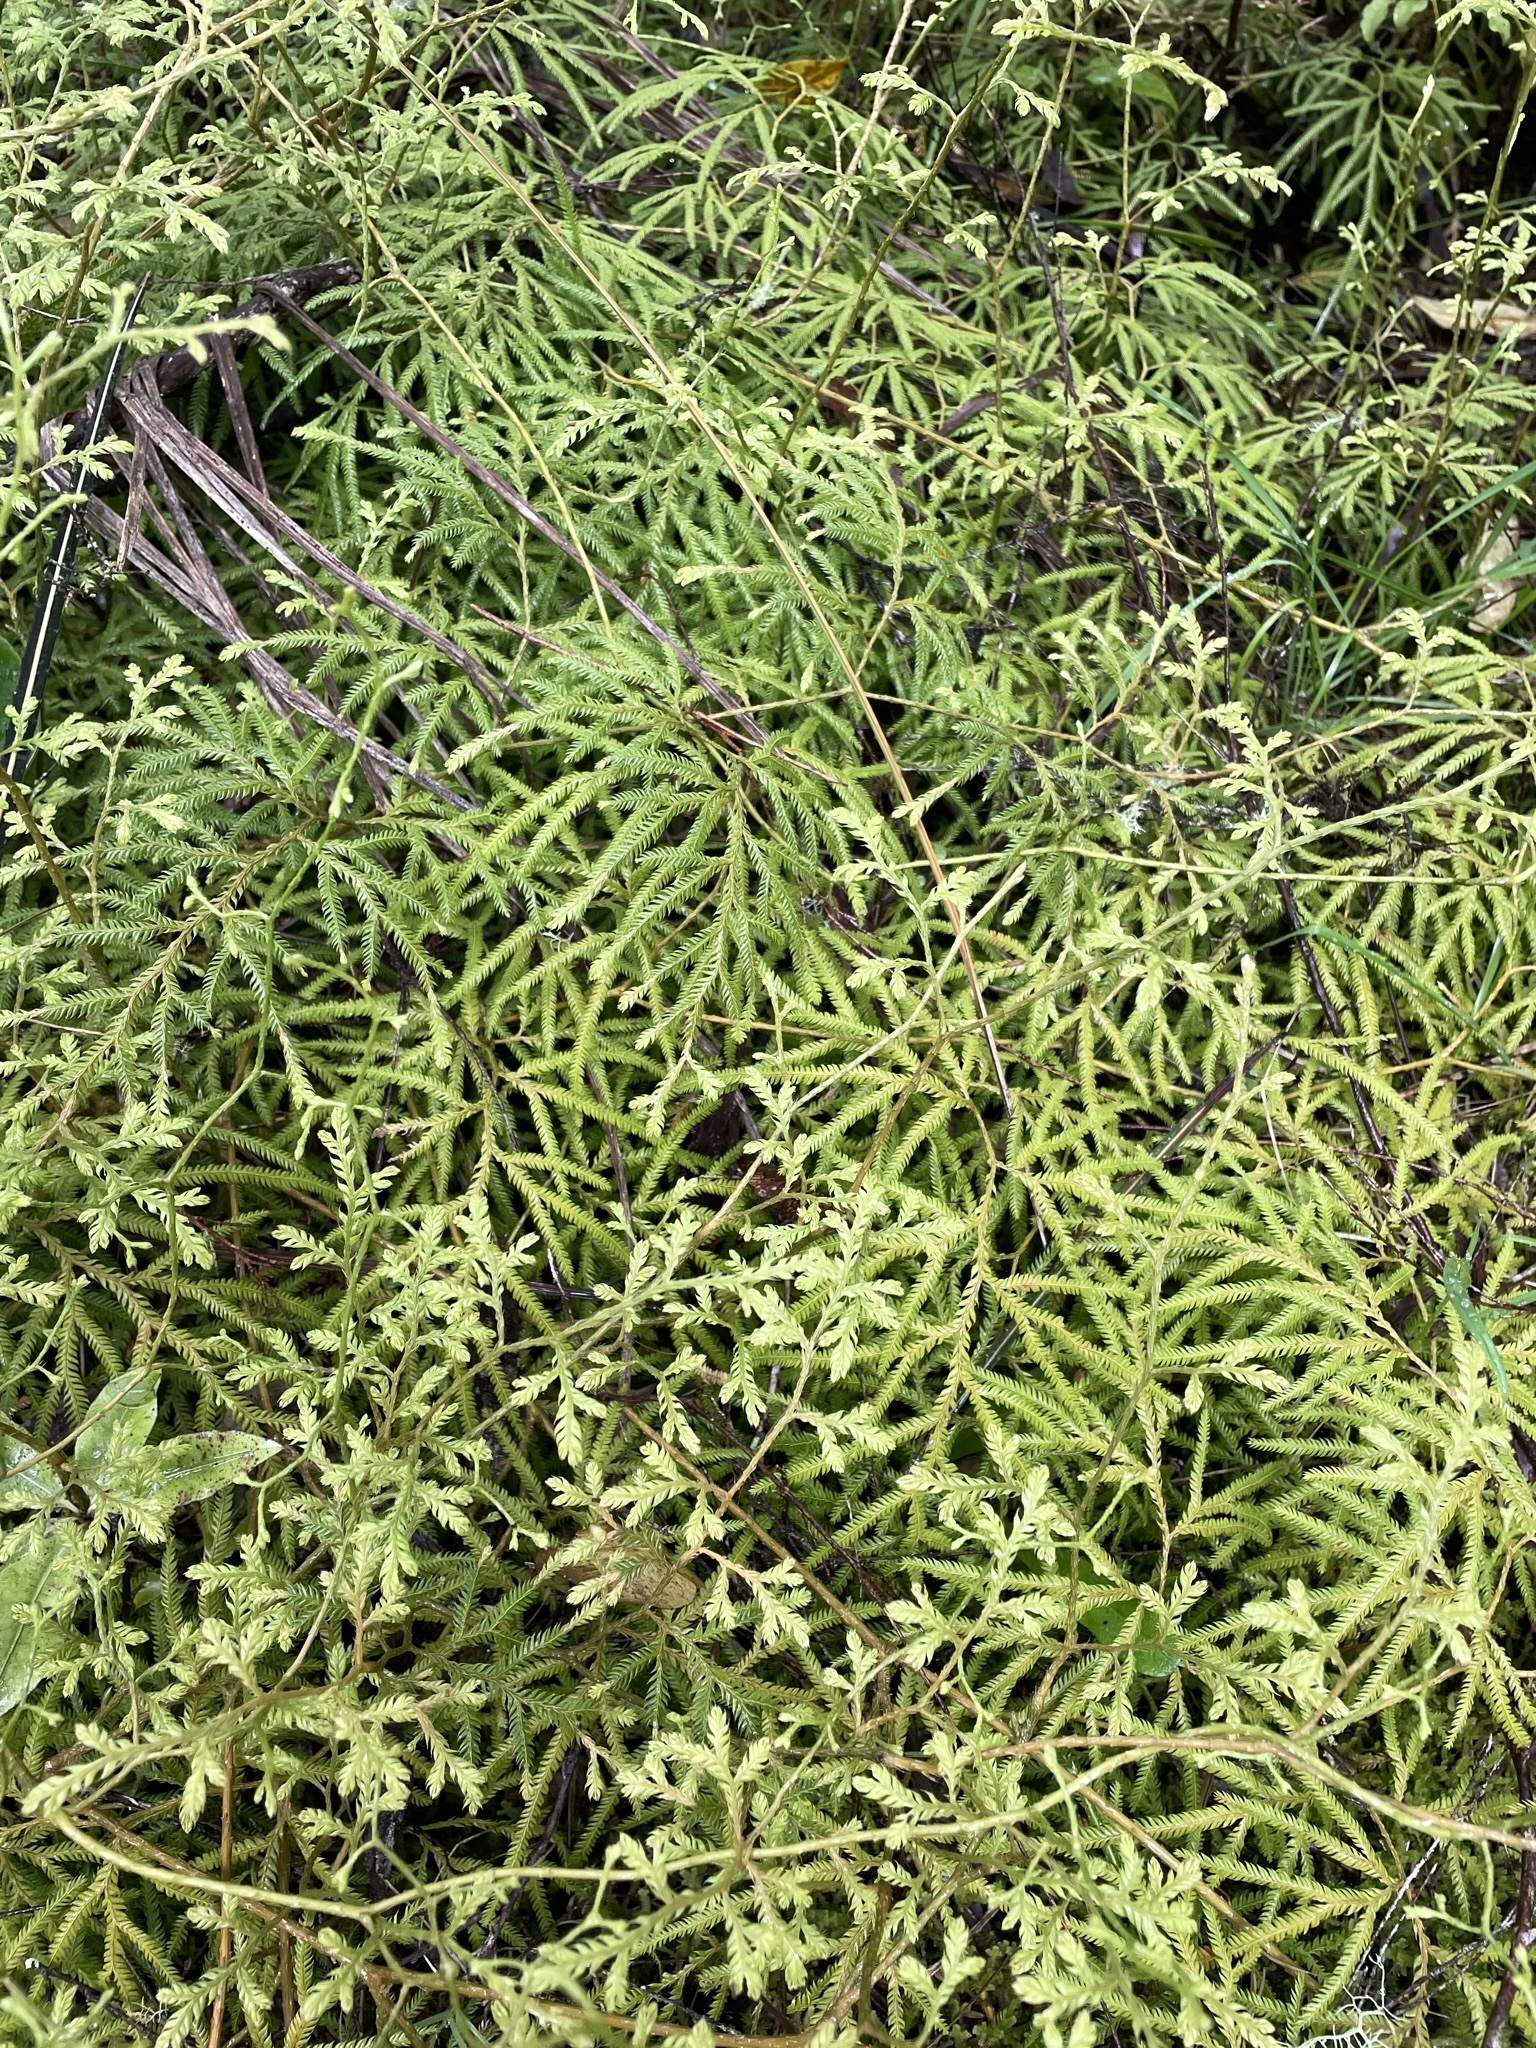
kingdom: Plantae
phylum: Tracheophyta
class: Lycopodiopsida
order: Lycopodiales
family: Lycopodiaceae
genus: Lycopodium
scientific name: Lycopodium volubile
